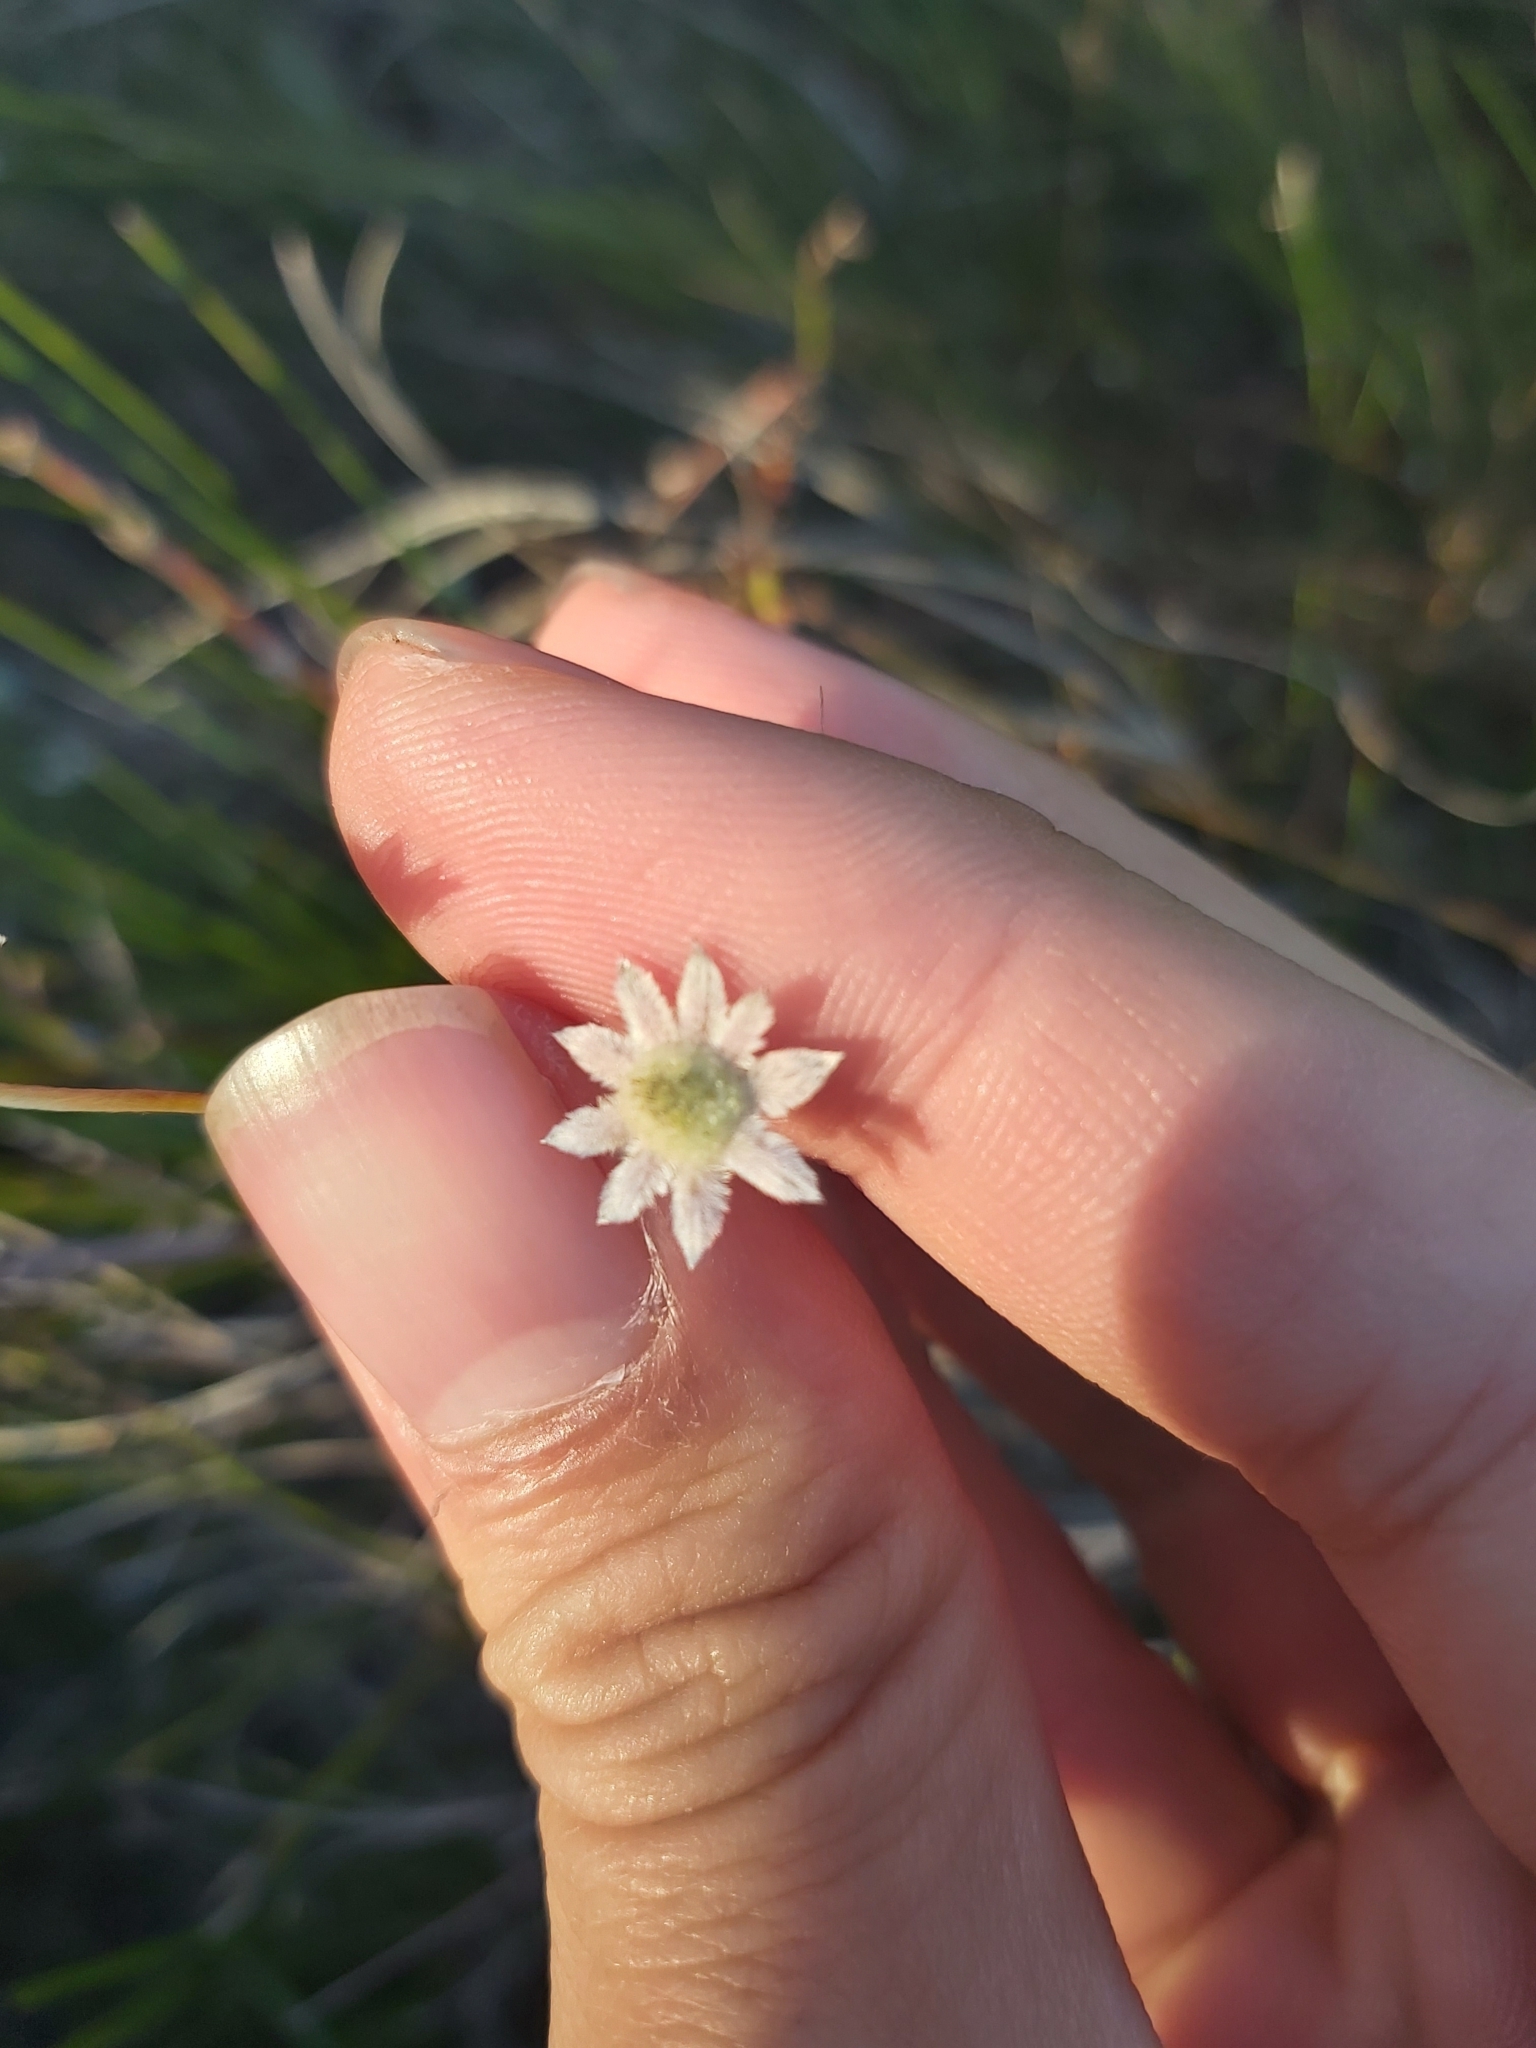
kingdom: Plantae
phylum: Tracheophyta
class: Magnoliopsida
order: Apiales
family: Apiaceae
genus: Actinotus
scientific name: Actinotus minor
